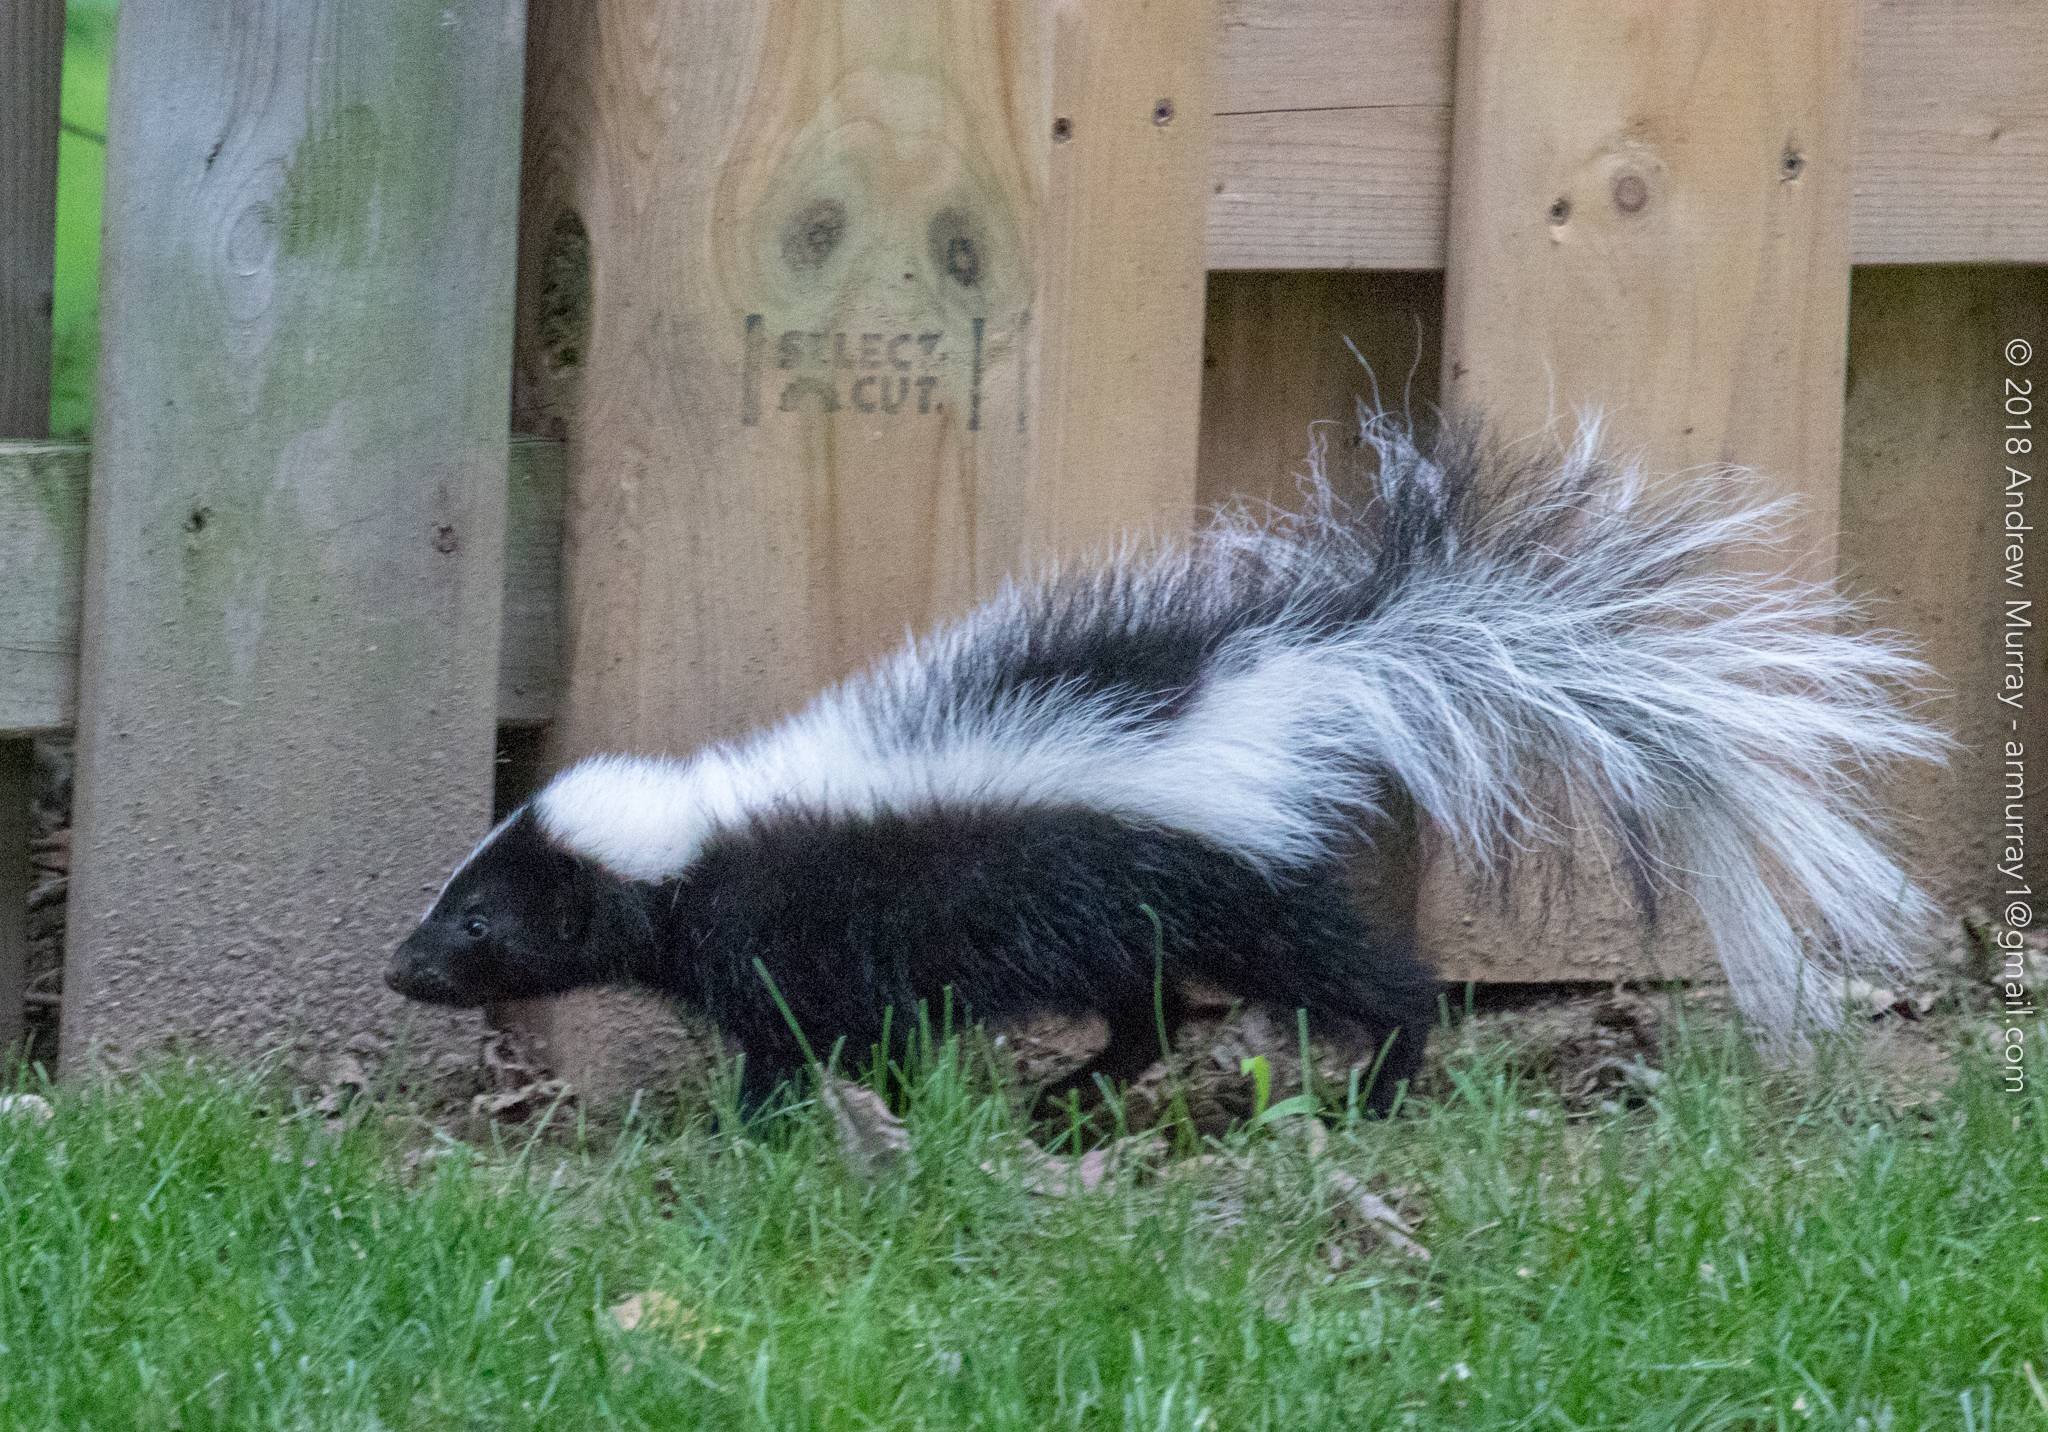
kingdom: Animalia
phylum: Chordata
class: Mammalia
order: Carnivora
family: Mephitidae
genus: Mephitis
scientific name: Mephitis mephitis
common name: Striped skunk
